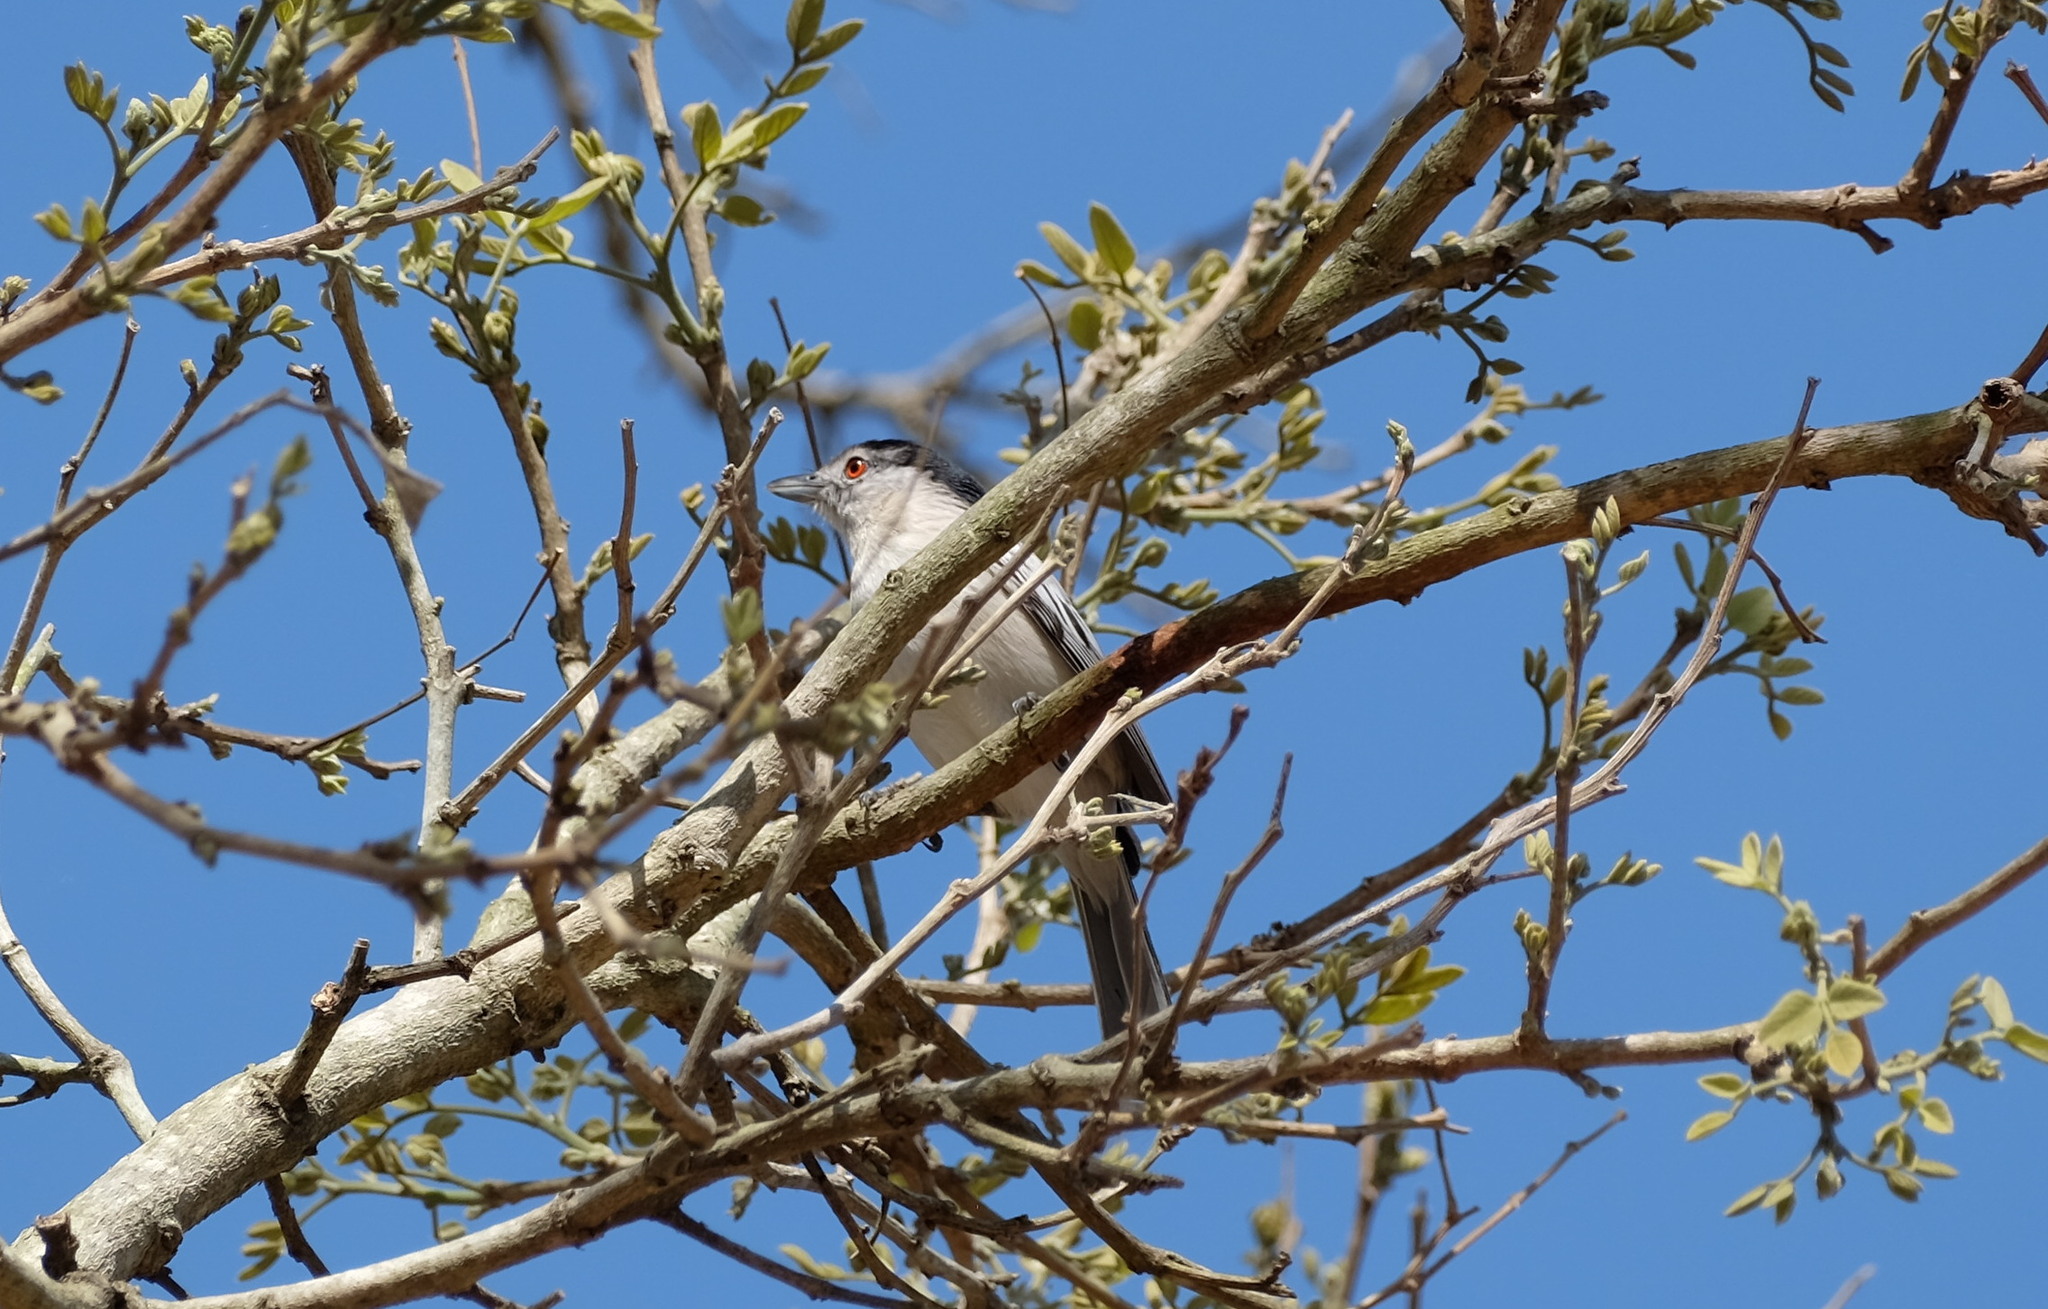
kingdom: Animalia
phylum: Chordata
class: Aves
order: Passeriformes
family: Malaconotidae
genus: Dryoscopus
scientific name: Dryoscopus cubla
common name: Black-backed puffback
